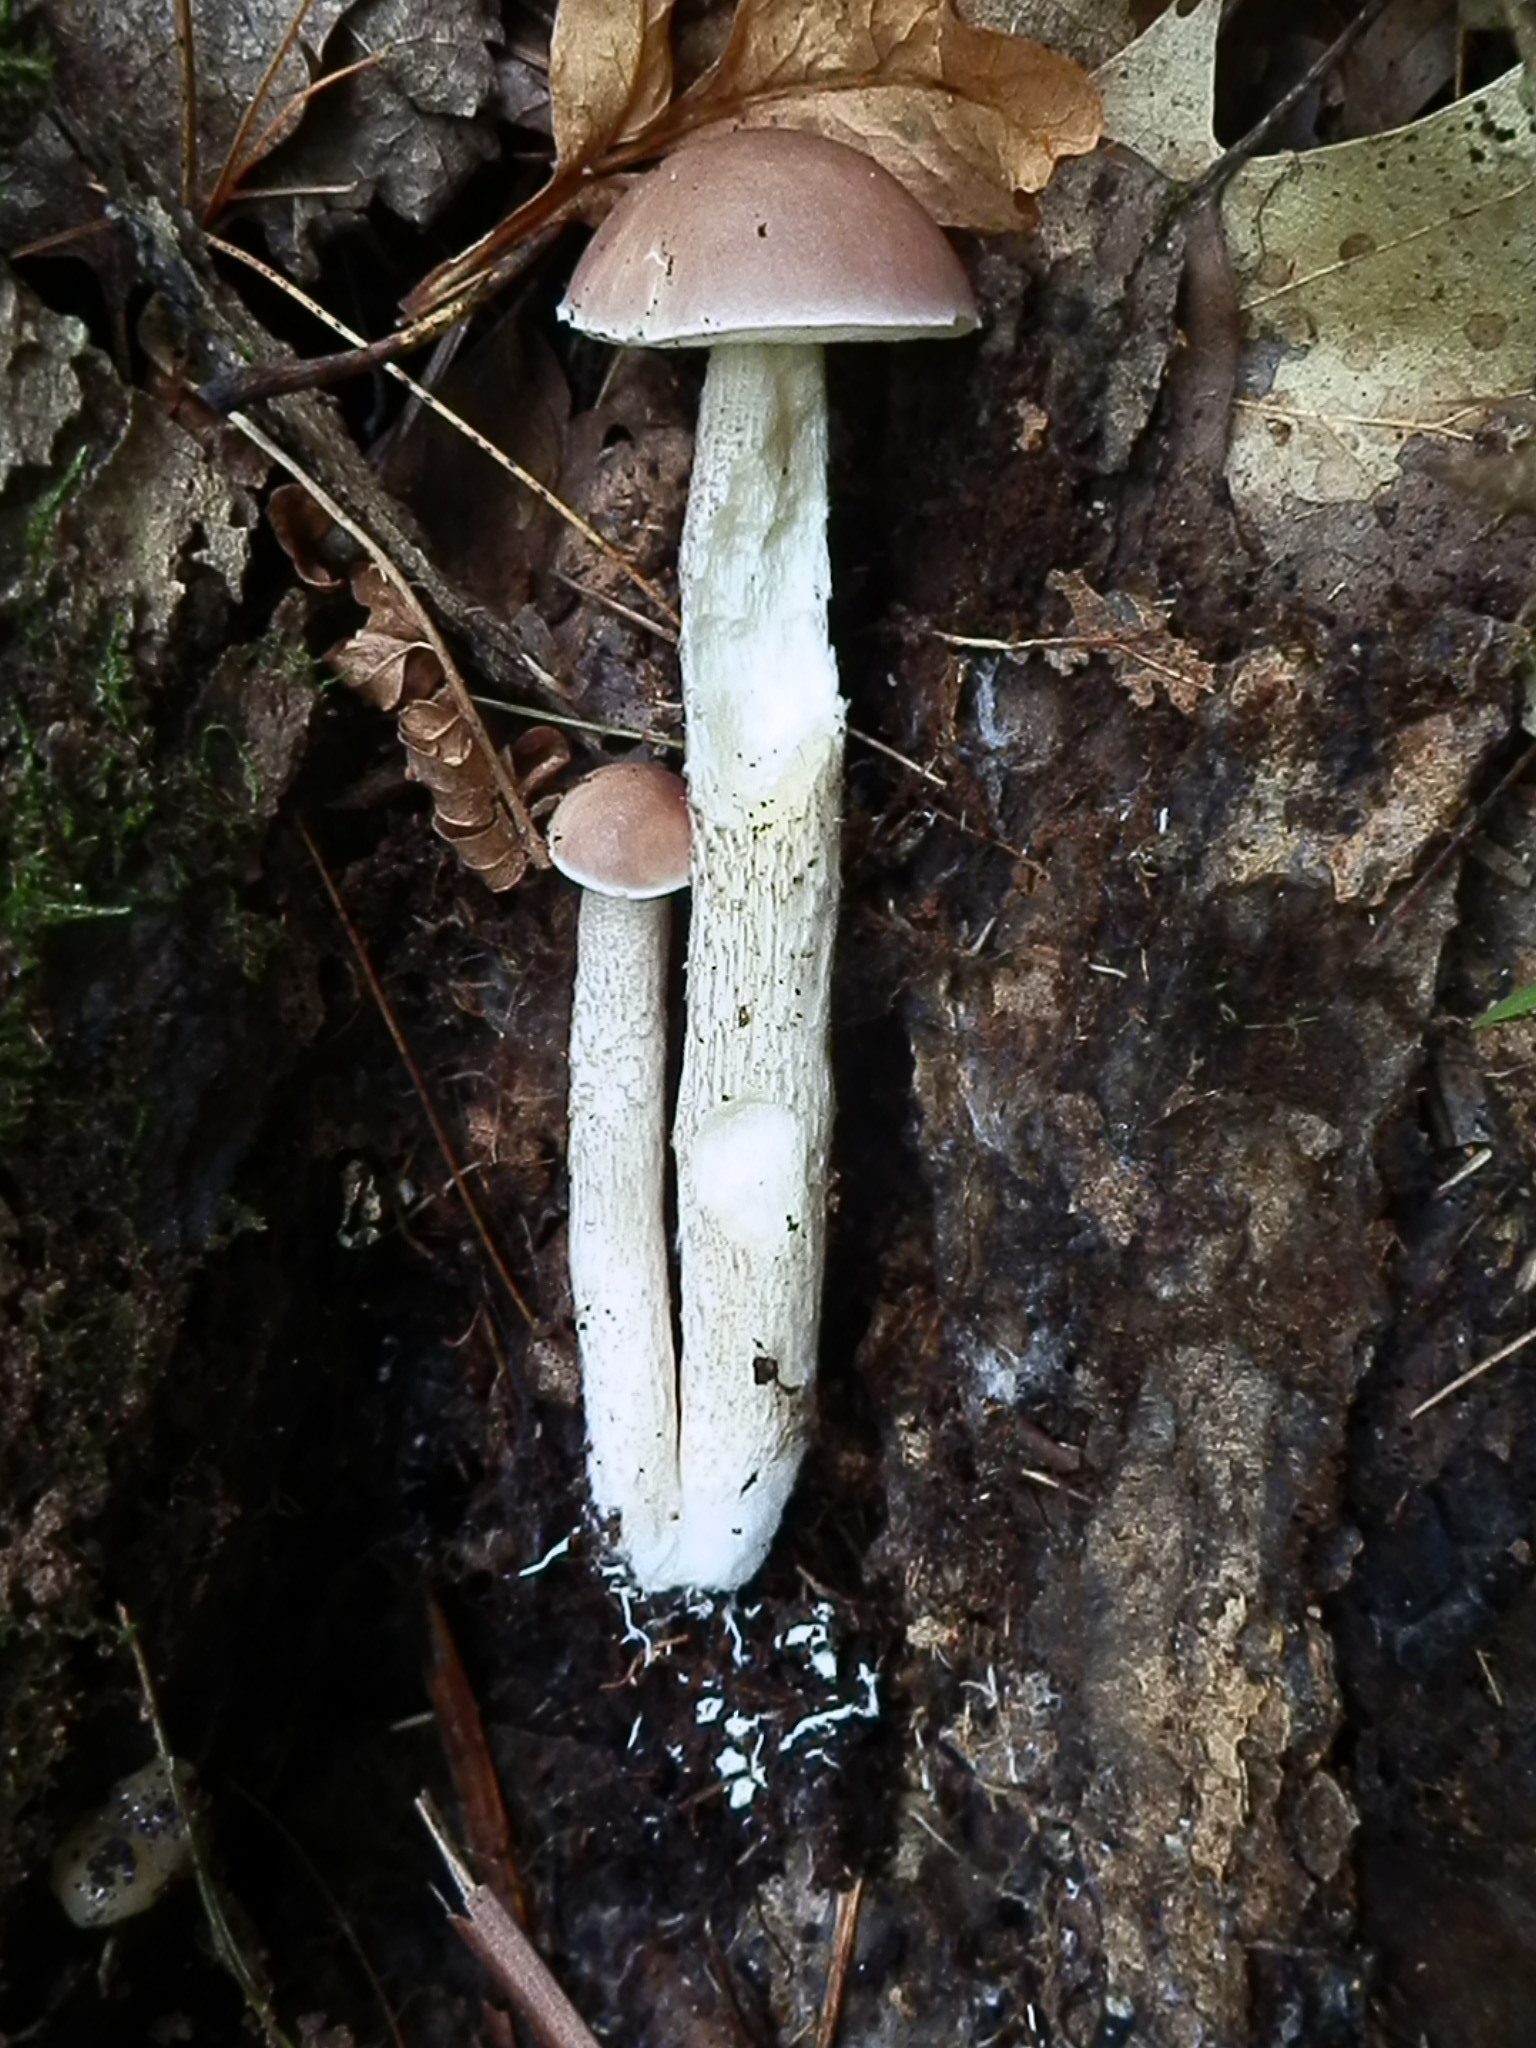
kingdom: Fungi
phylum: Basidiomycota
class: Agaricomycetes
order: Boletales
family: Boletaceae
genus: Leccinellum
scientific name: Leccinellum albellum
